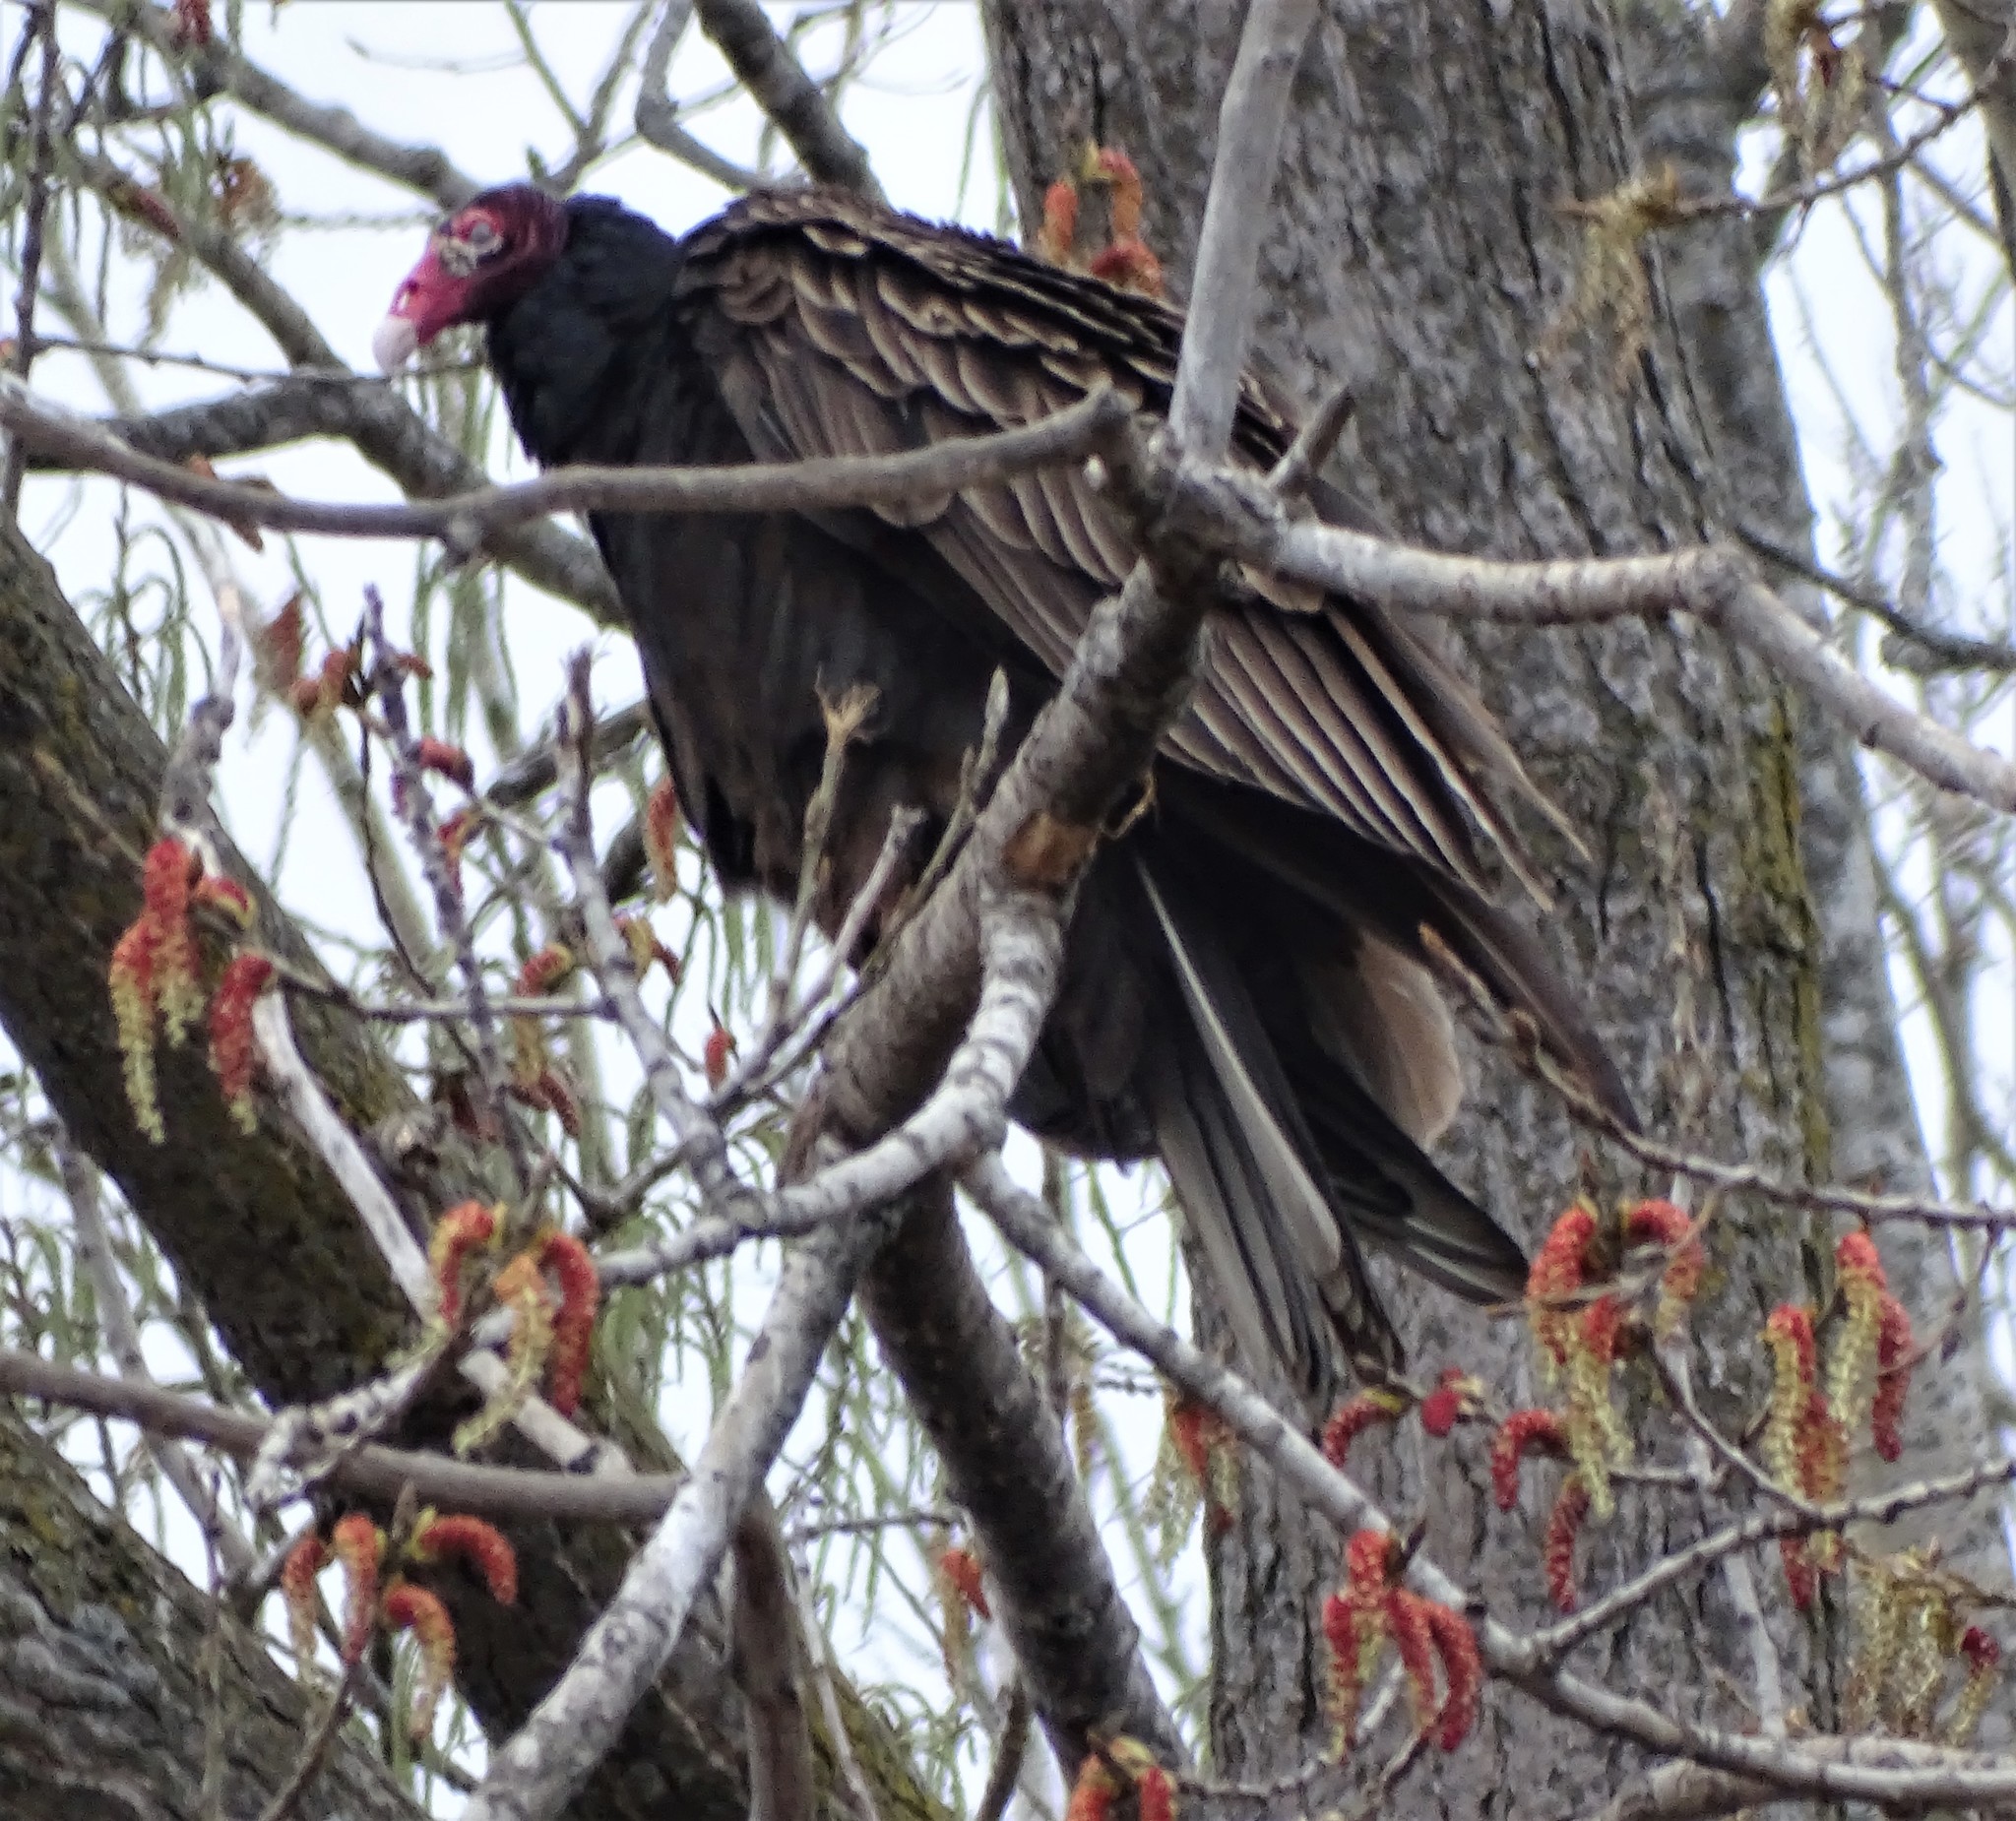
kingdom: Animalia
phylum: Chordata
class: Aves
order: Accipitriformes
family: Cathartidae
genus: Cathartes
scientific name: Cathartes aura
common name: Turkey vulture
